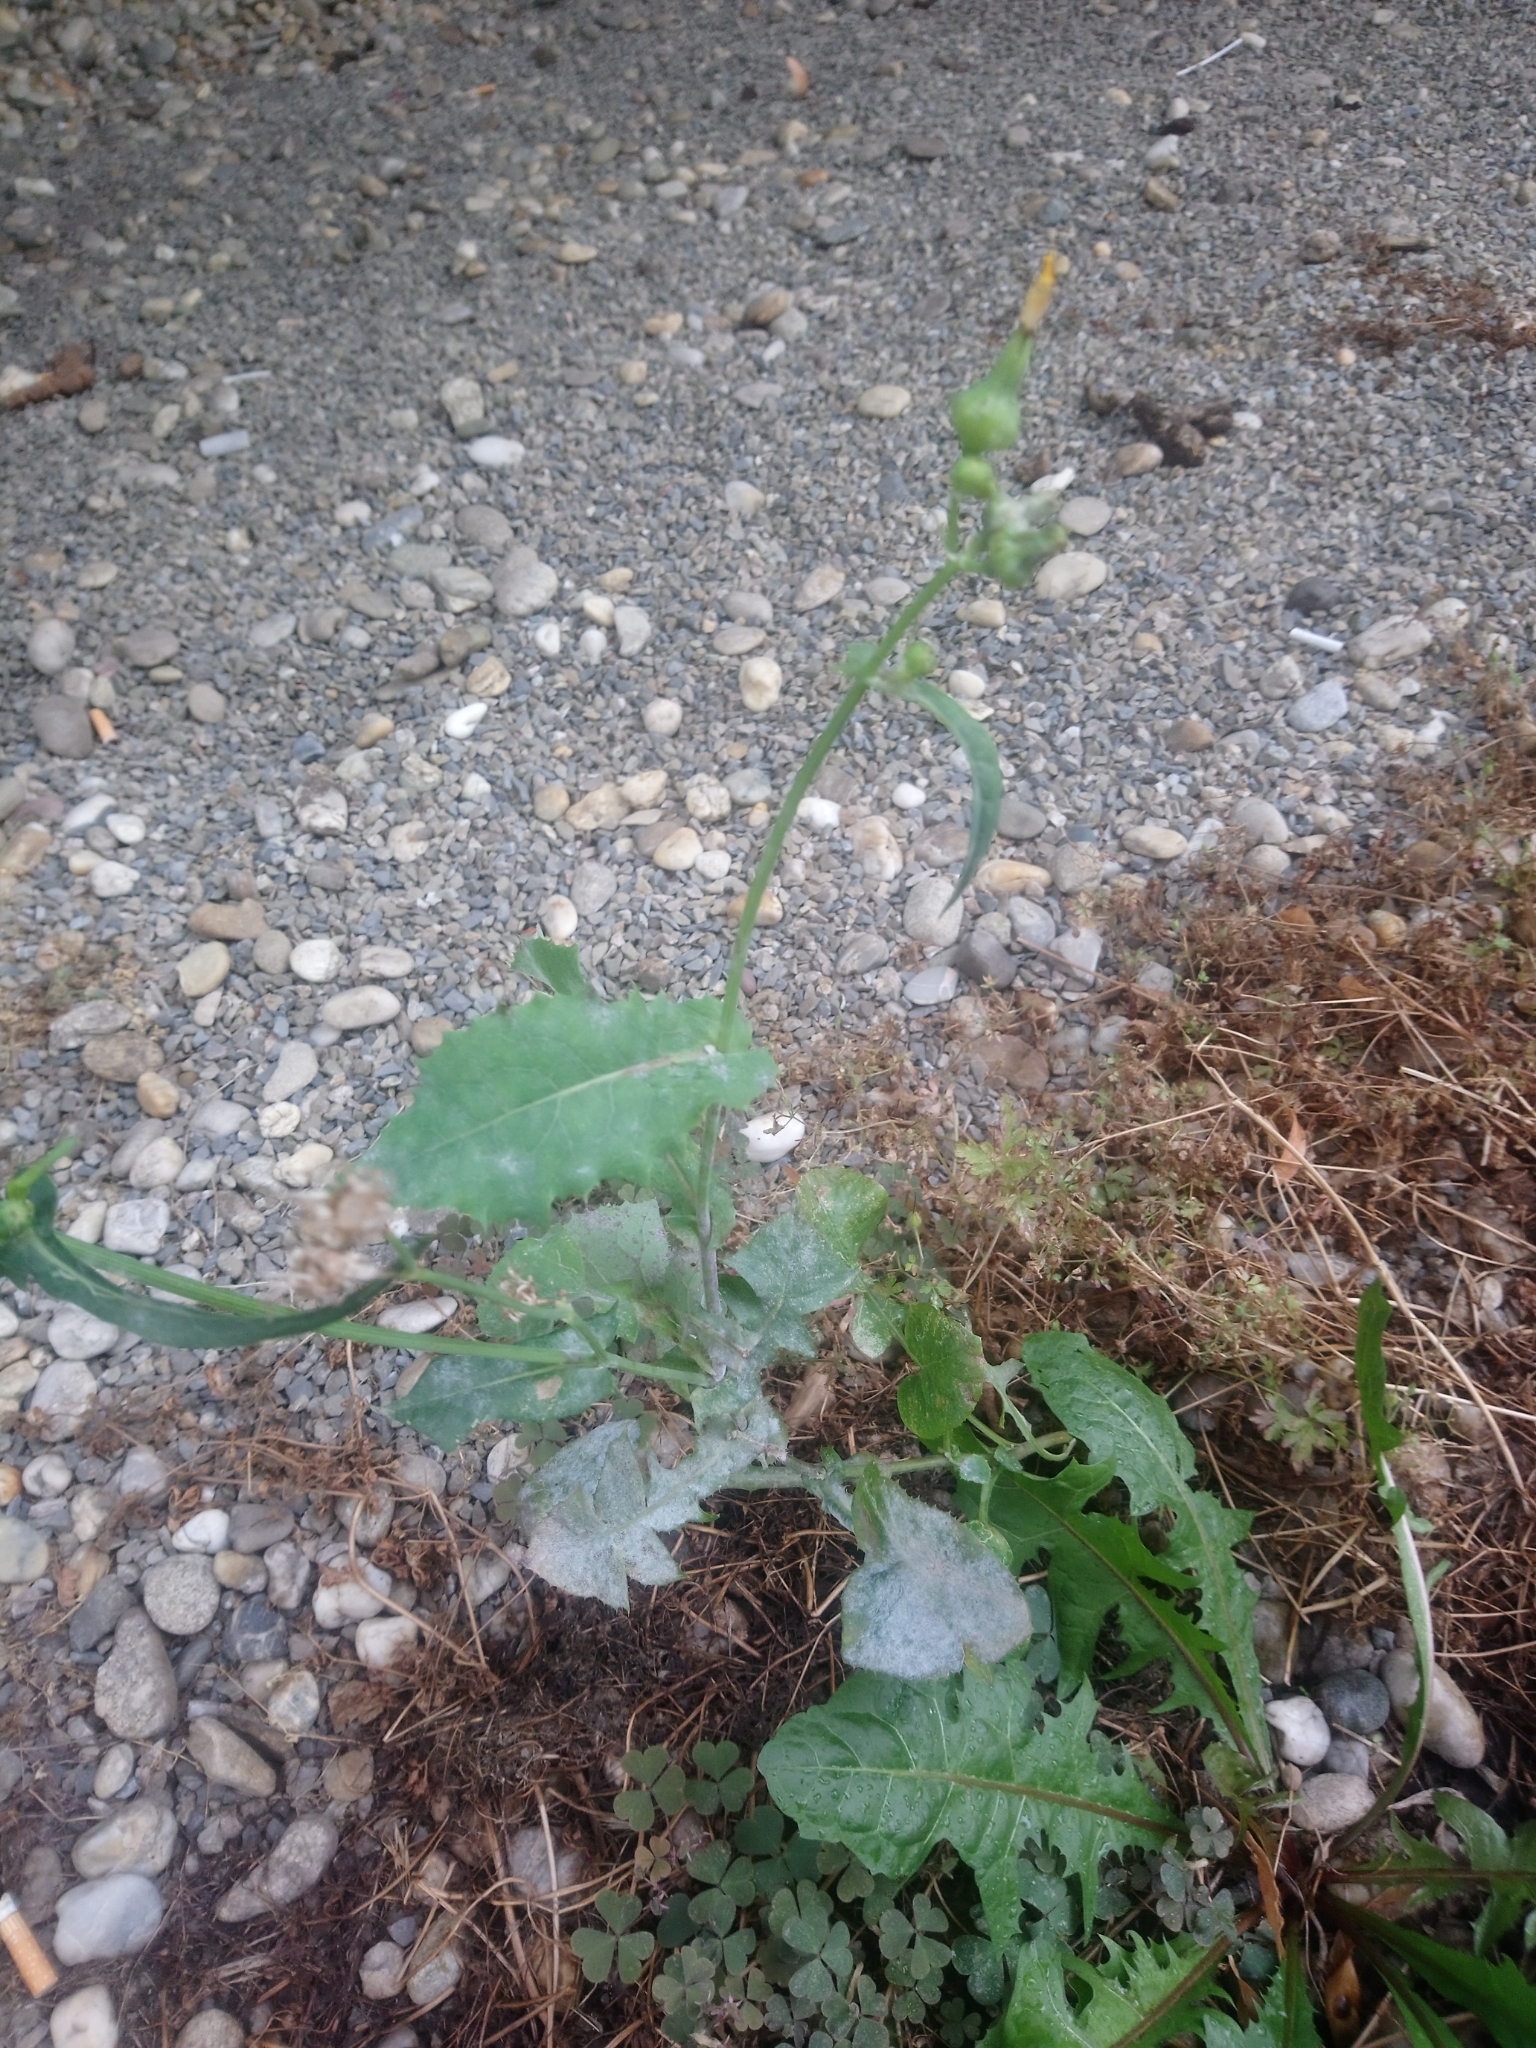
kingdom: Plantae
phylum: Tracheophyta
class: Magnoliopsida
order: Asterales
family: Asteraceae
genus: Sonchus
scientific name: Sonchus oleraceus
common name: Common sowthistle
